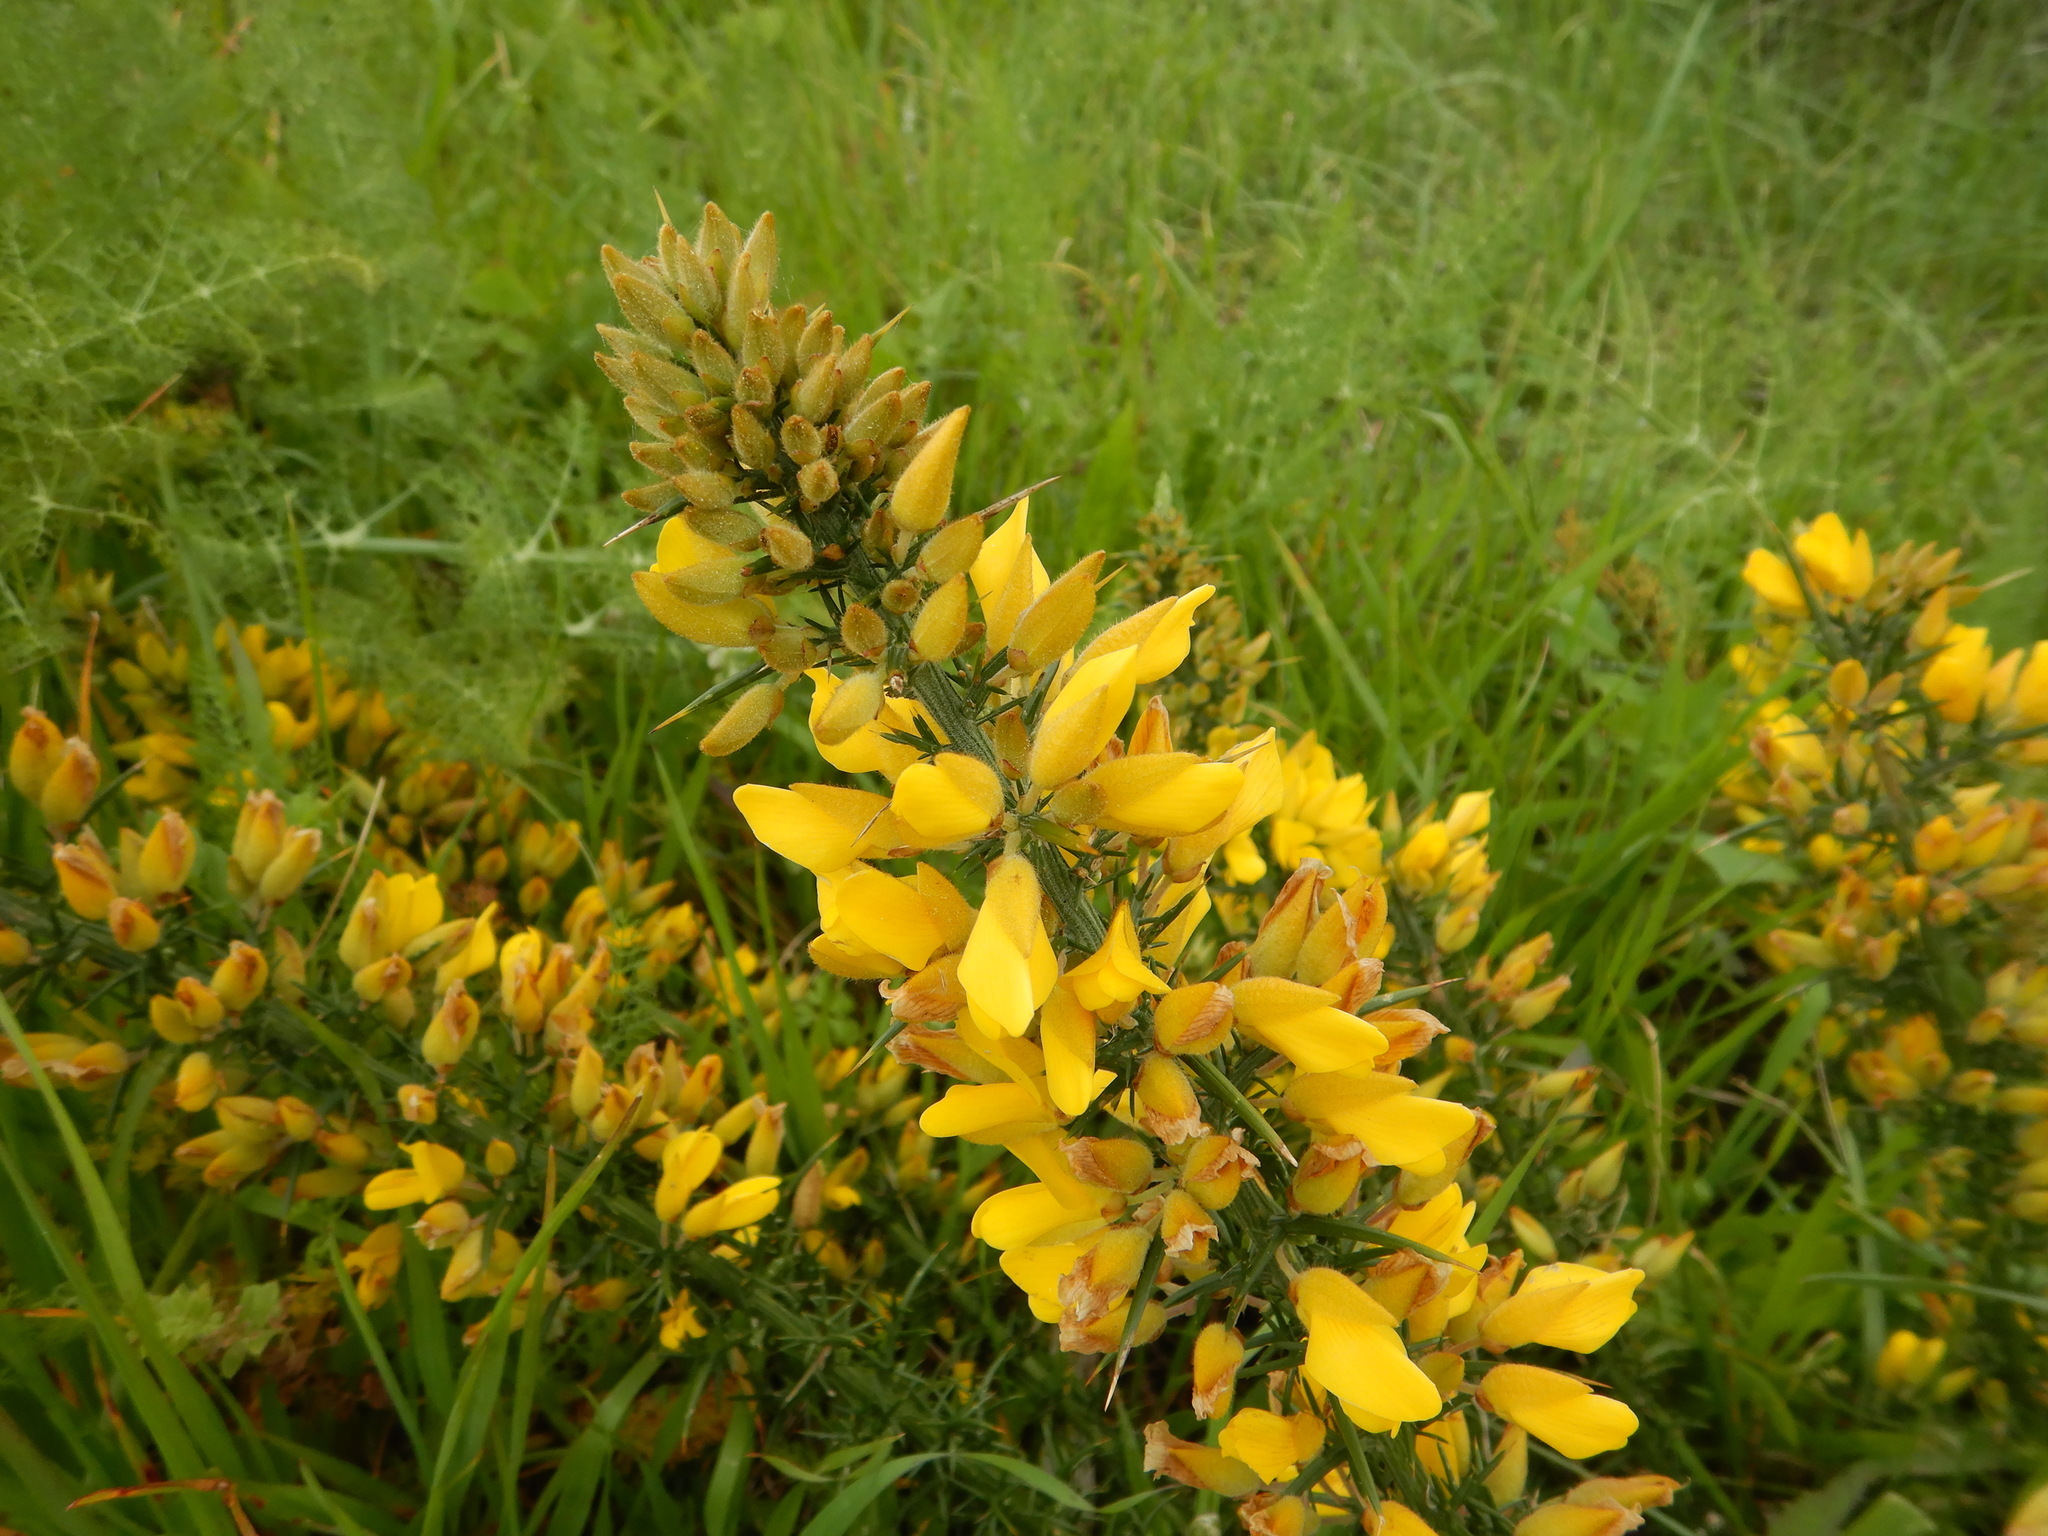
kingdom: Plantae
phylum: Tracheophyta
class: Magnoliopsida
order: Fabales
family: Fabaceae
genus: Ulex
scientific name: Ulex europaeus
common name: Common gorse
